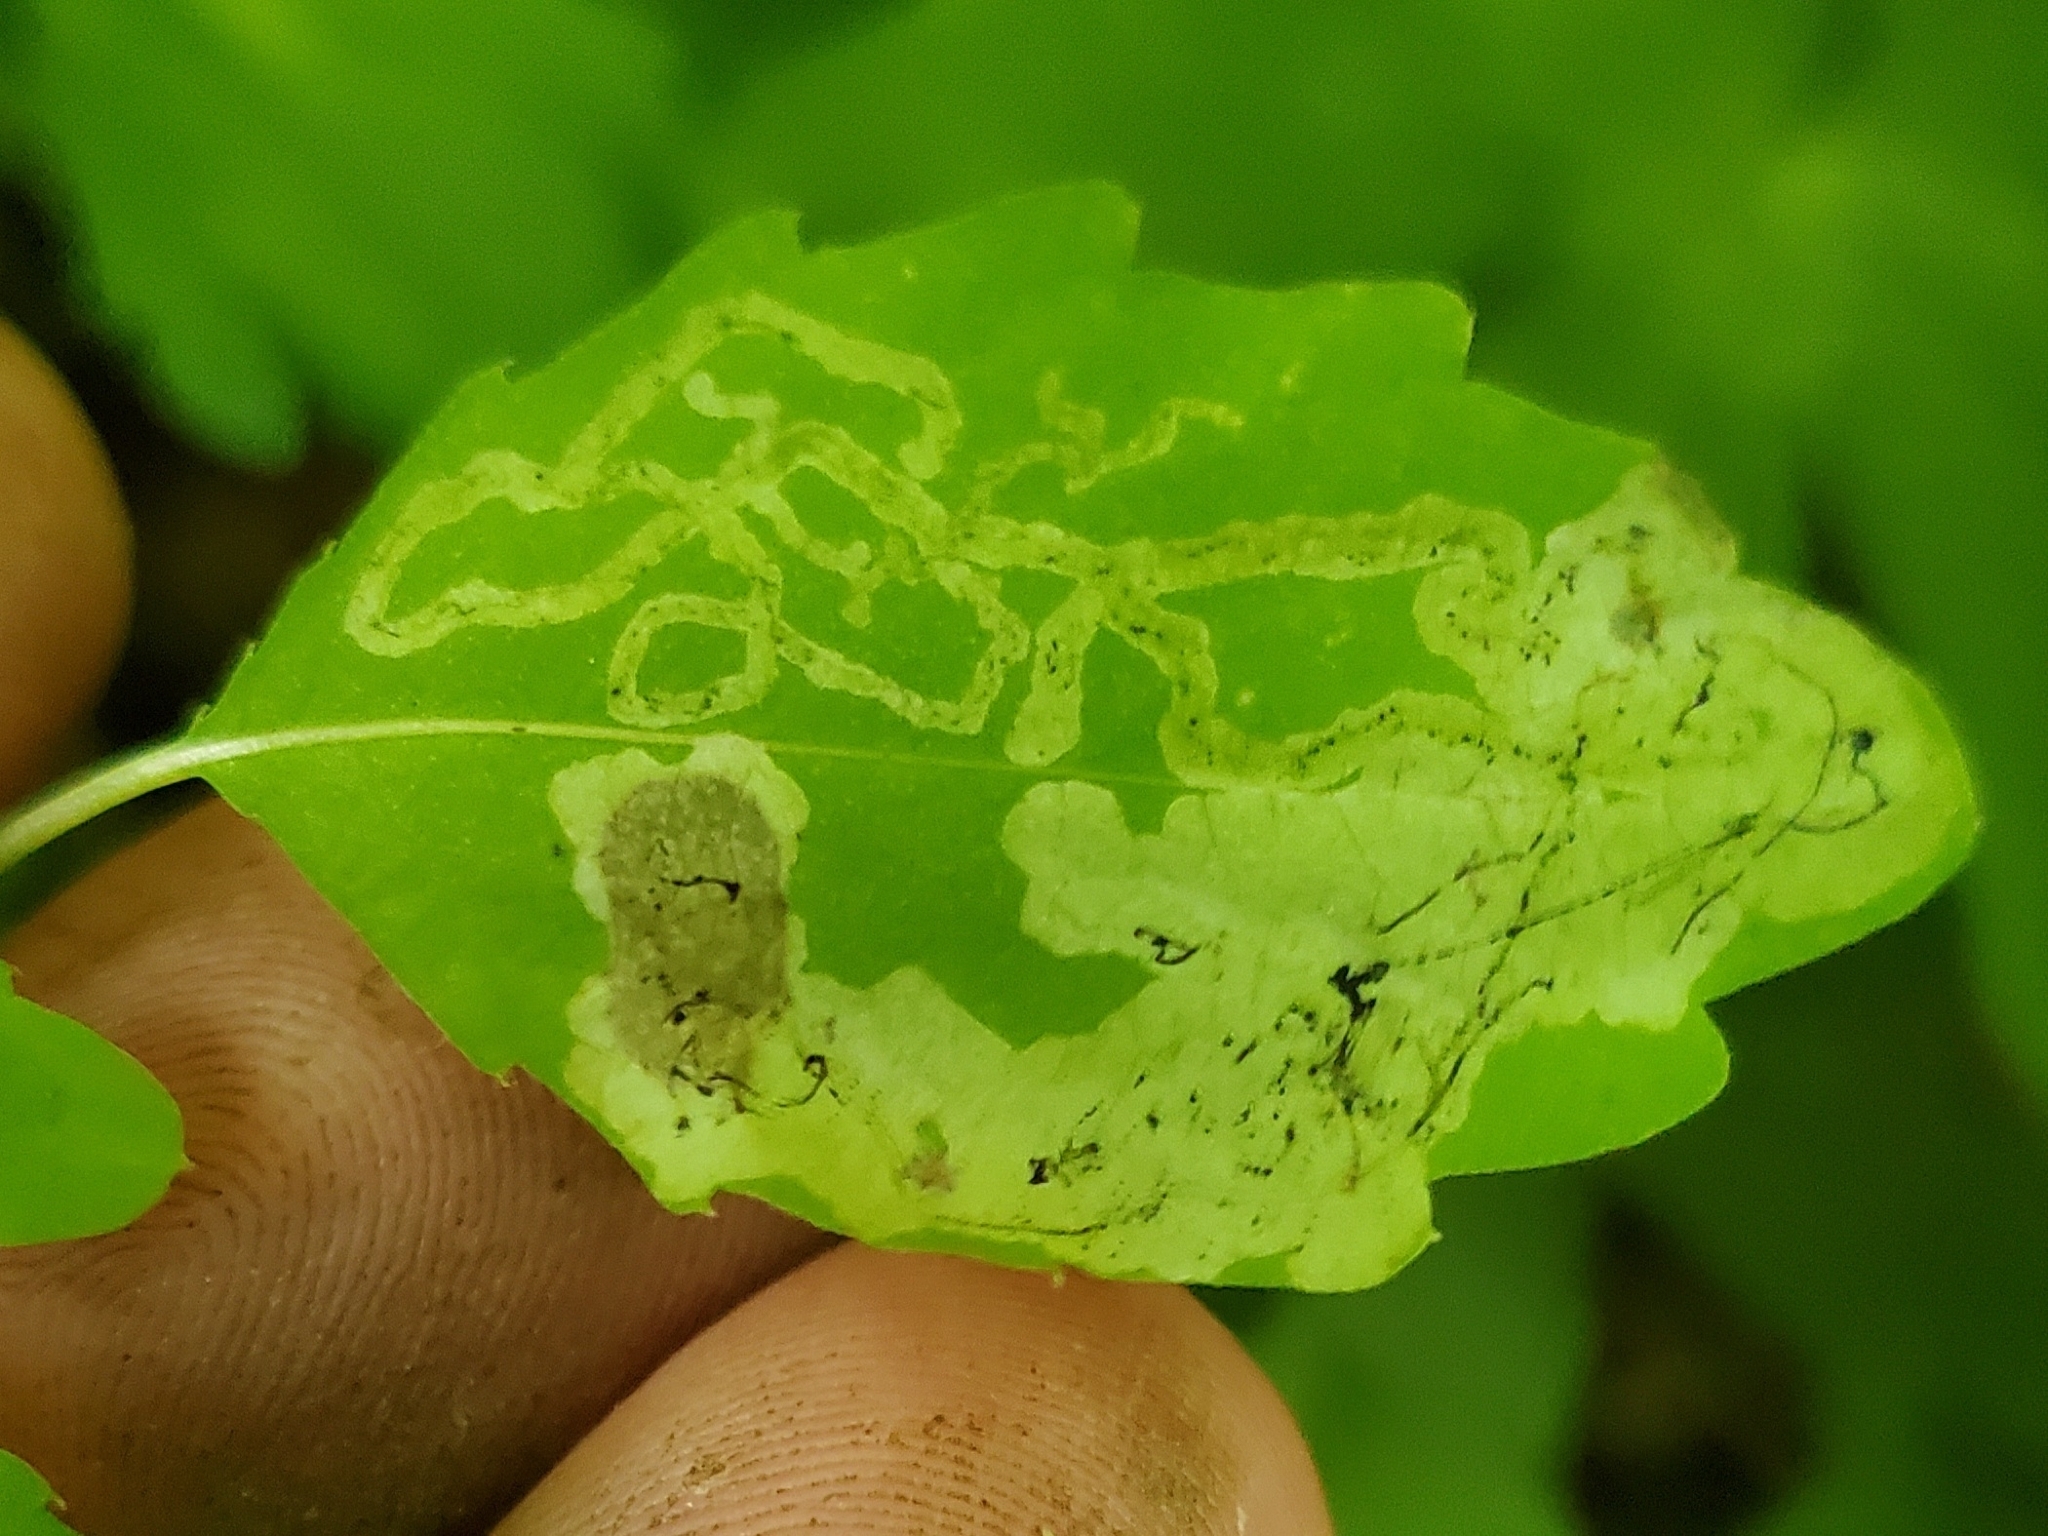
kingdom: Animalia
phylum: Arthropoda
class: Insecta
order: Diptera
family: Agromyzidae
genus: Phytoliriomyza
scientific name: Phytoliriomyza melampyga
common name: Jewelweed leaf-miner fly
